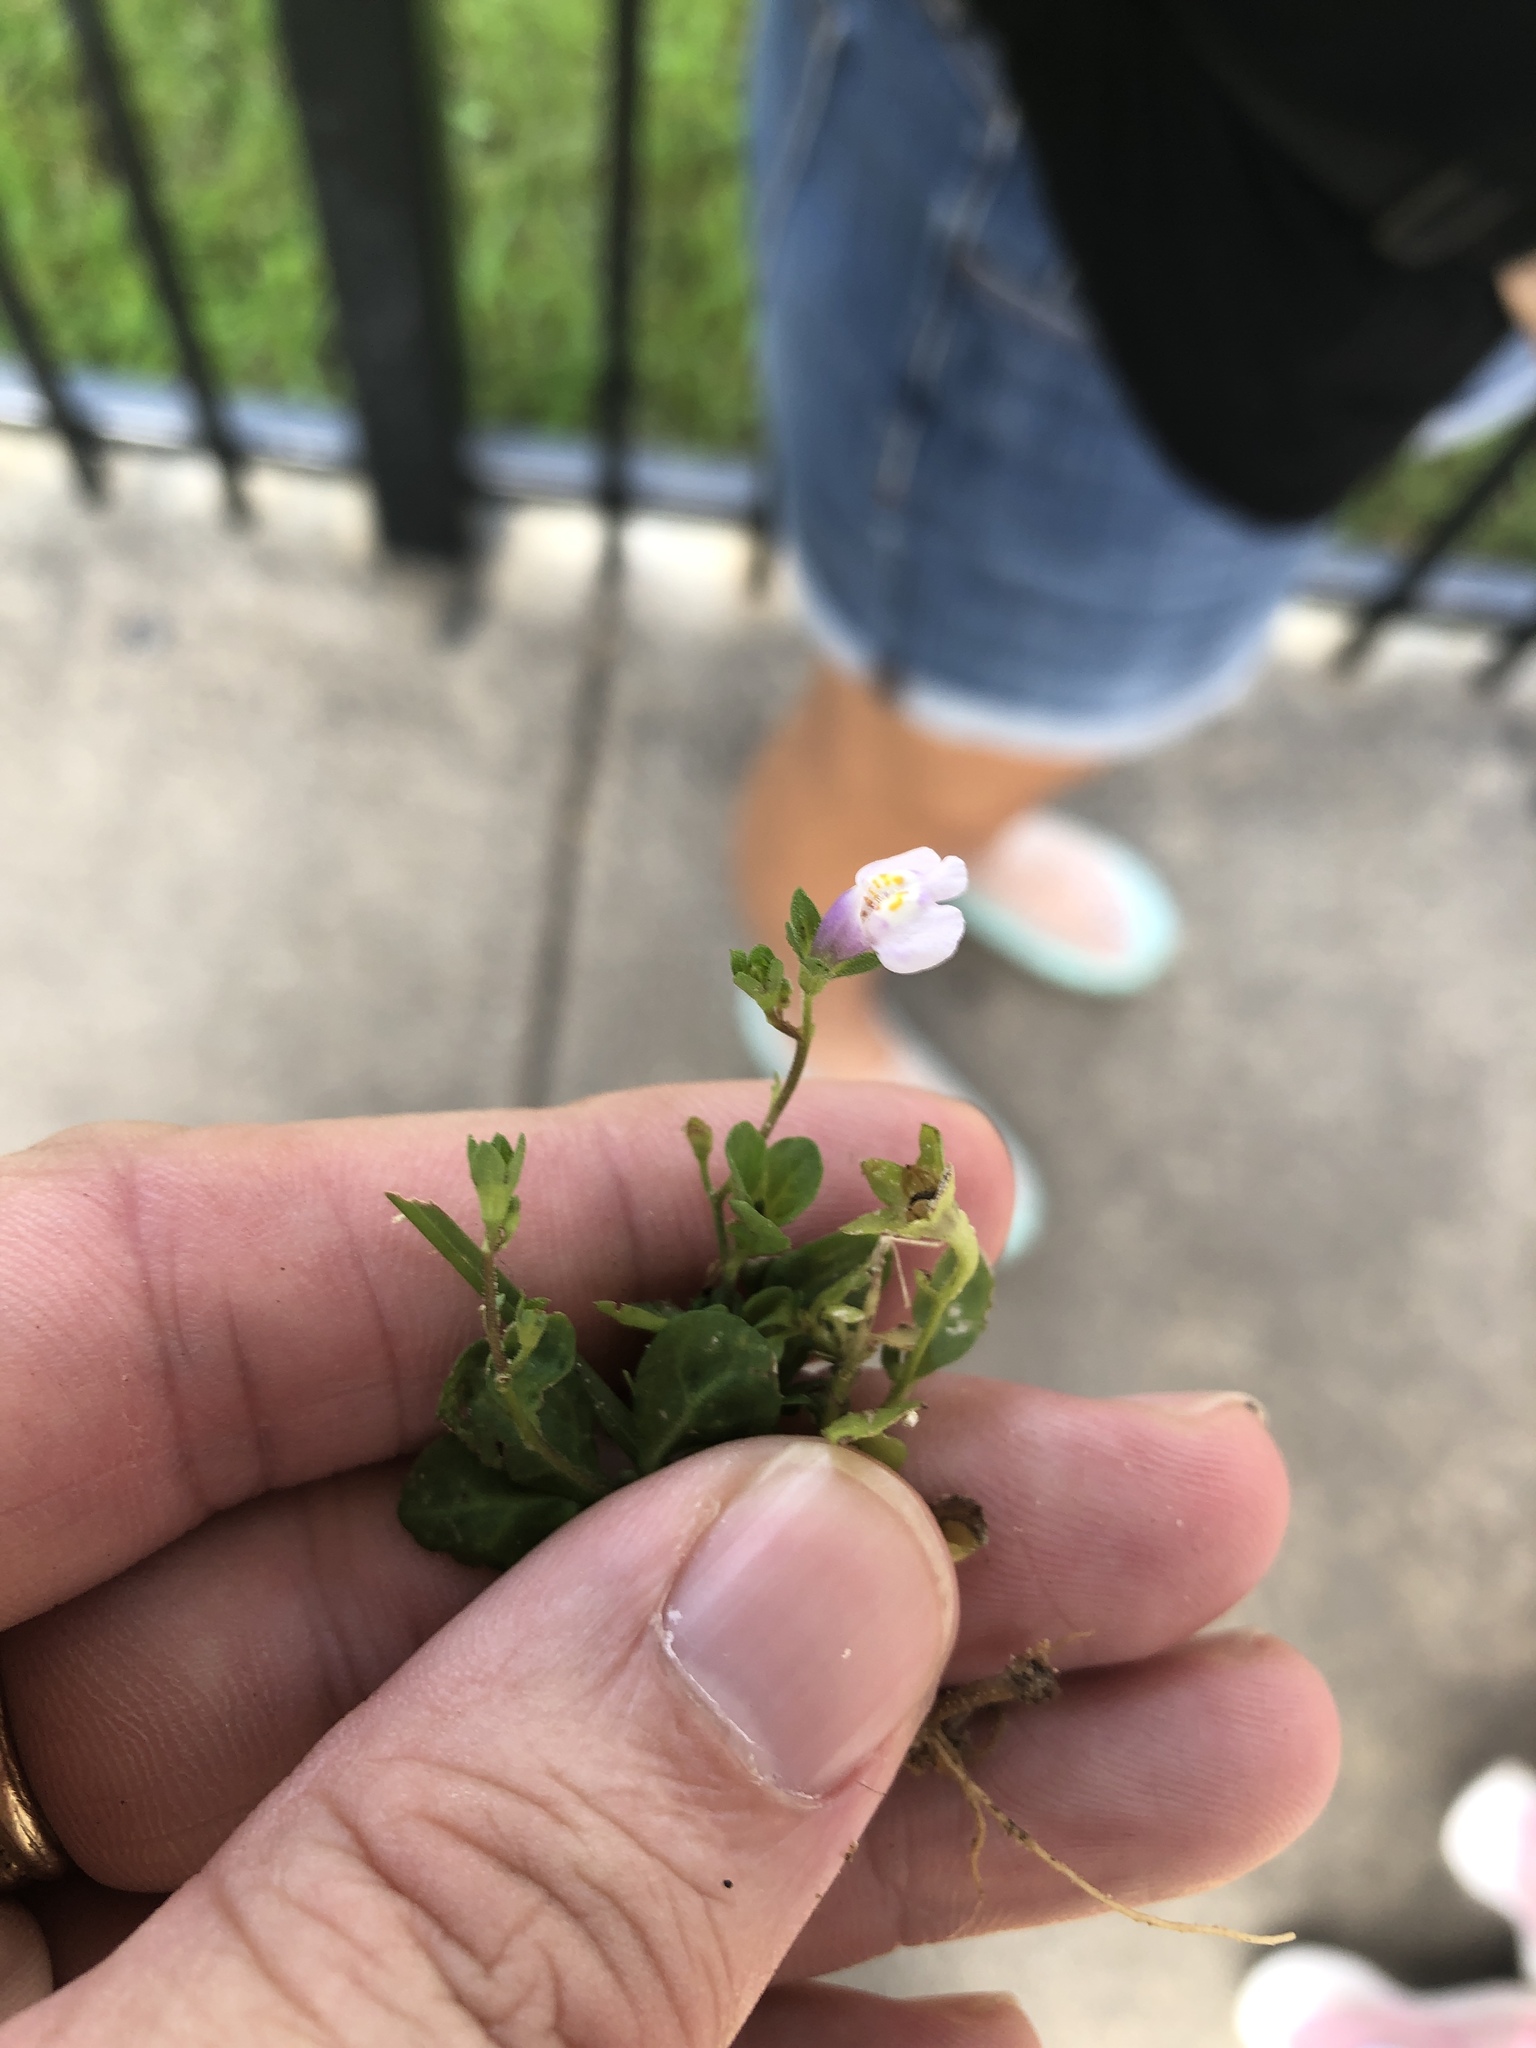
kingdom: Plantae
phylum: Tracheophyta
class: Magnoliopsida
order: Lamiales
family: Mazaceae
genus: Mazus
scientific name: Mazus pumilus
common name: Japanese mazus
